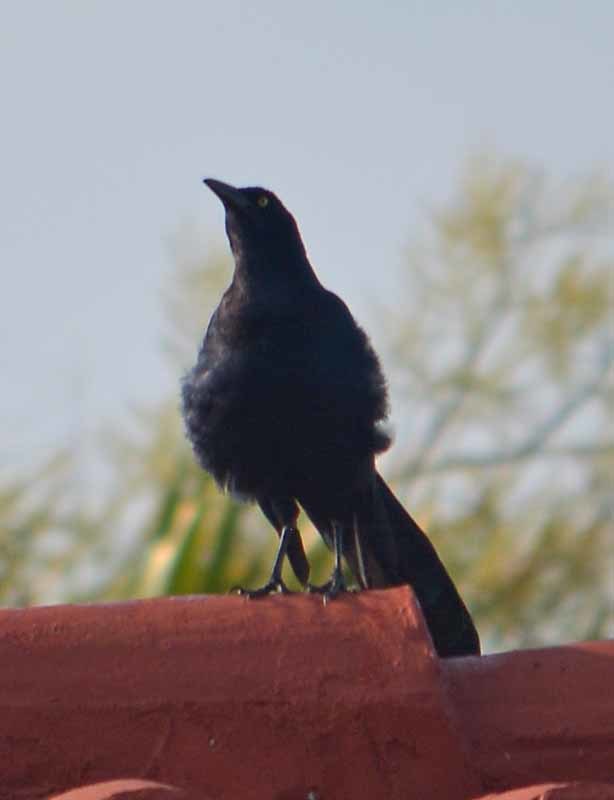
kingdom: Animalia
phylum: Chordata
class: Aves
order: Passeriformes
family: Icteridae
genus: Quiscalus
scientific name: Quiscalus mexicanus
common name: Great-tailed grackle
